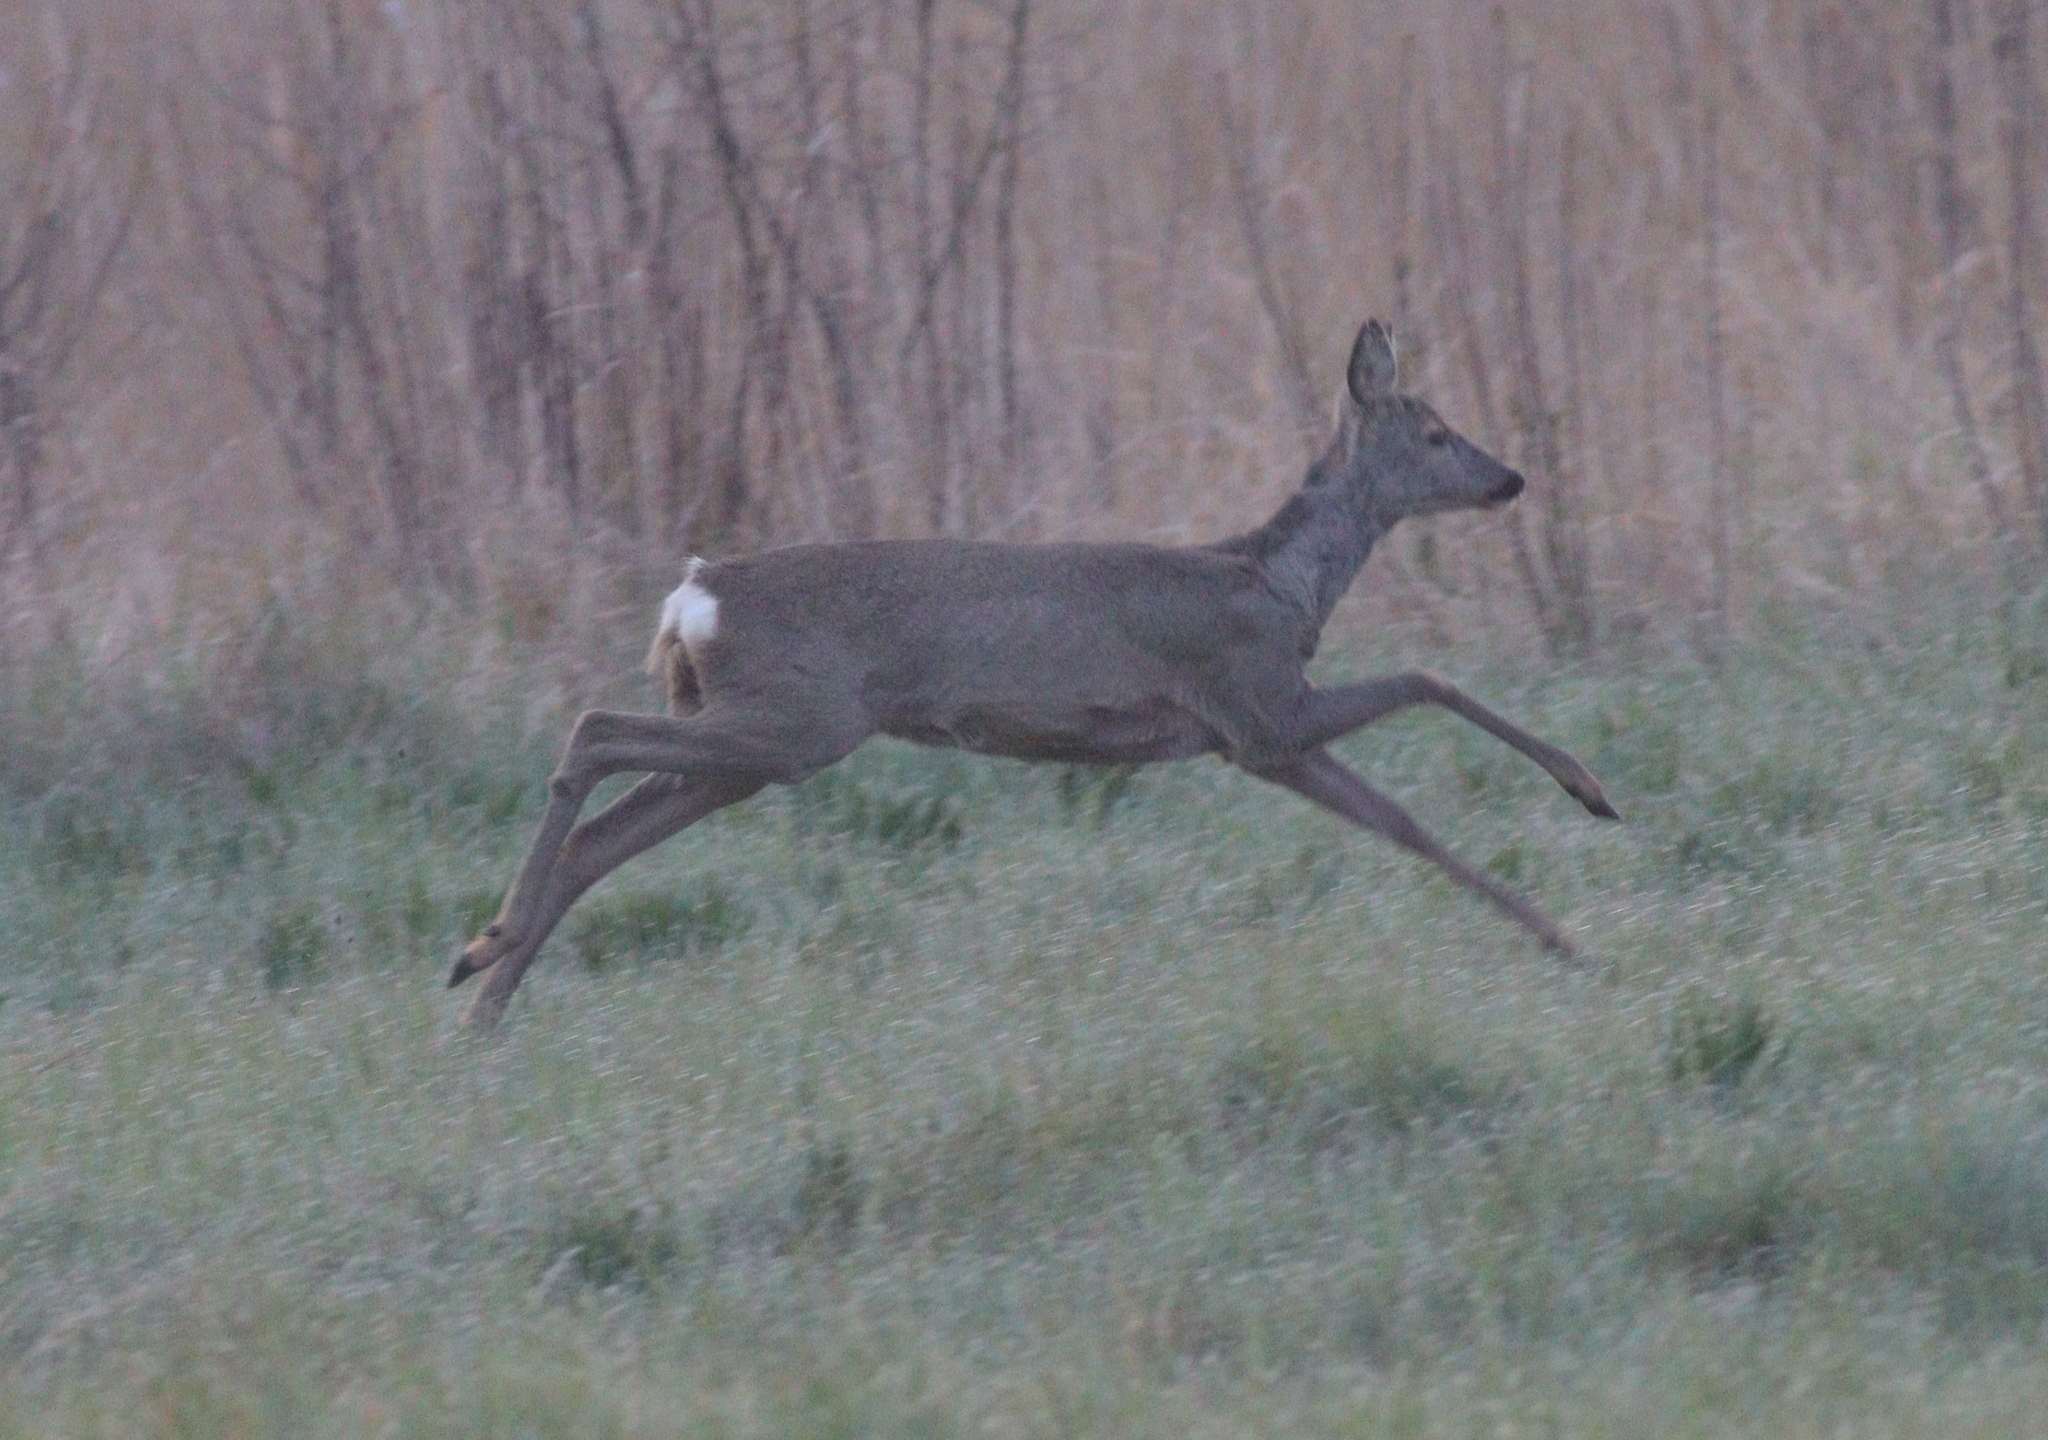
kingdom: Animalia
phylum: Chordata
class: Mammalia
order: Artiodactyla
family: Cervidae
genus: Capreolus
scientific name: Capreolus capreolus
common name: Western roe deer
